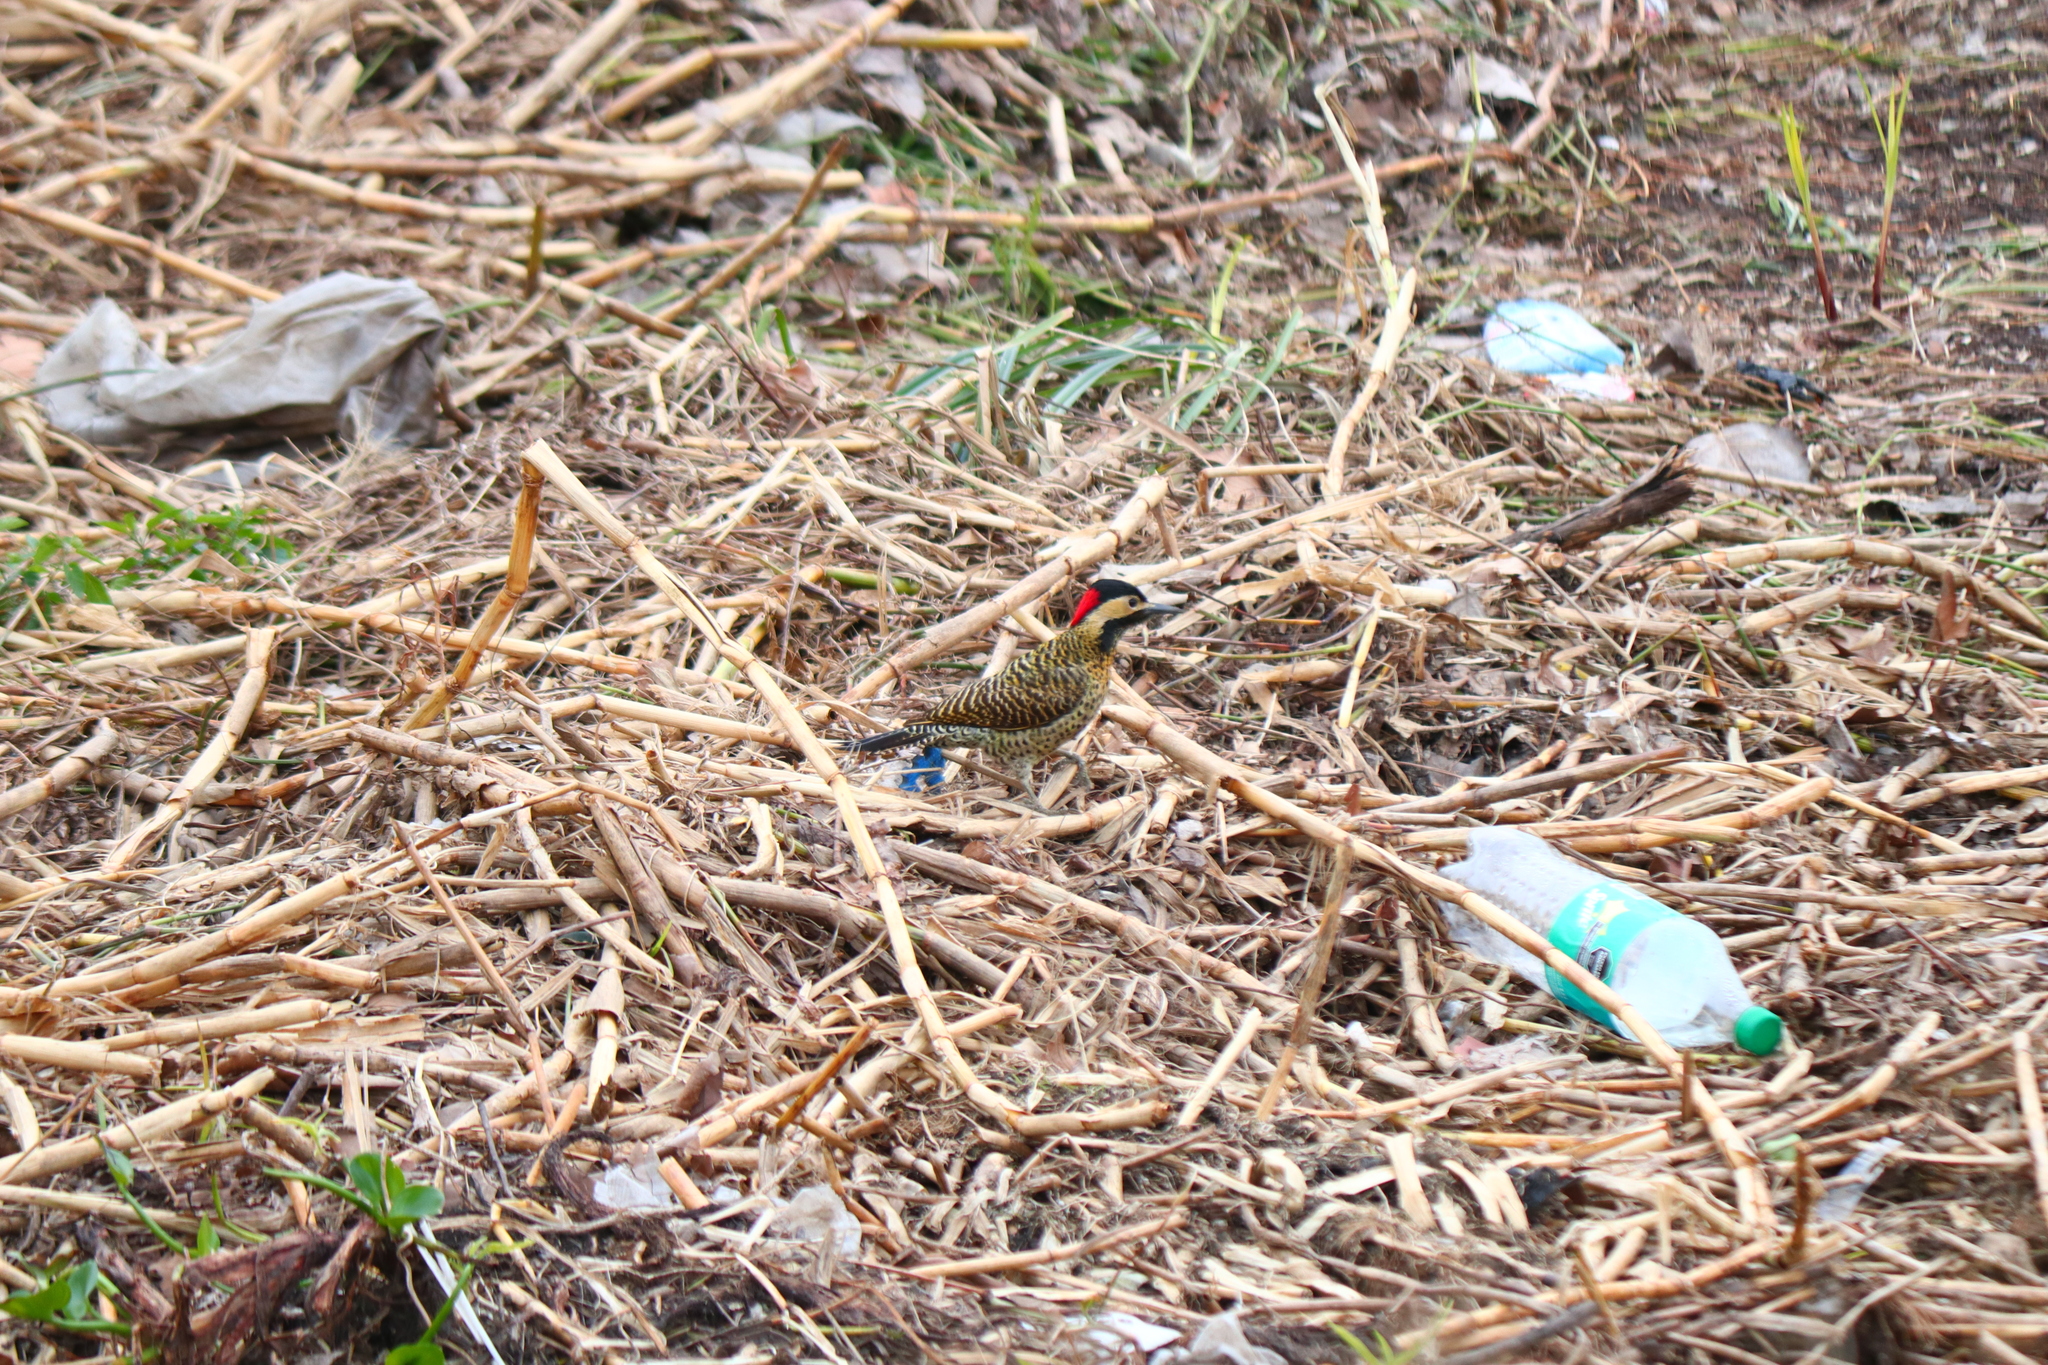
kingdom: Animalia
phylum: Chordata
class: Aves
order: Piciformes
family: Picidae
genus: Colaptes
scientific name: Colaptes melanochloros
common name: Green-barred woodpecker
